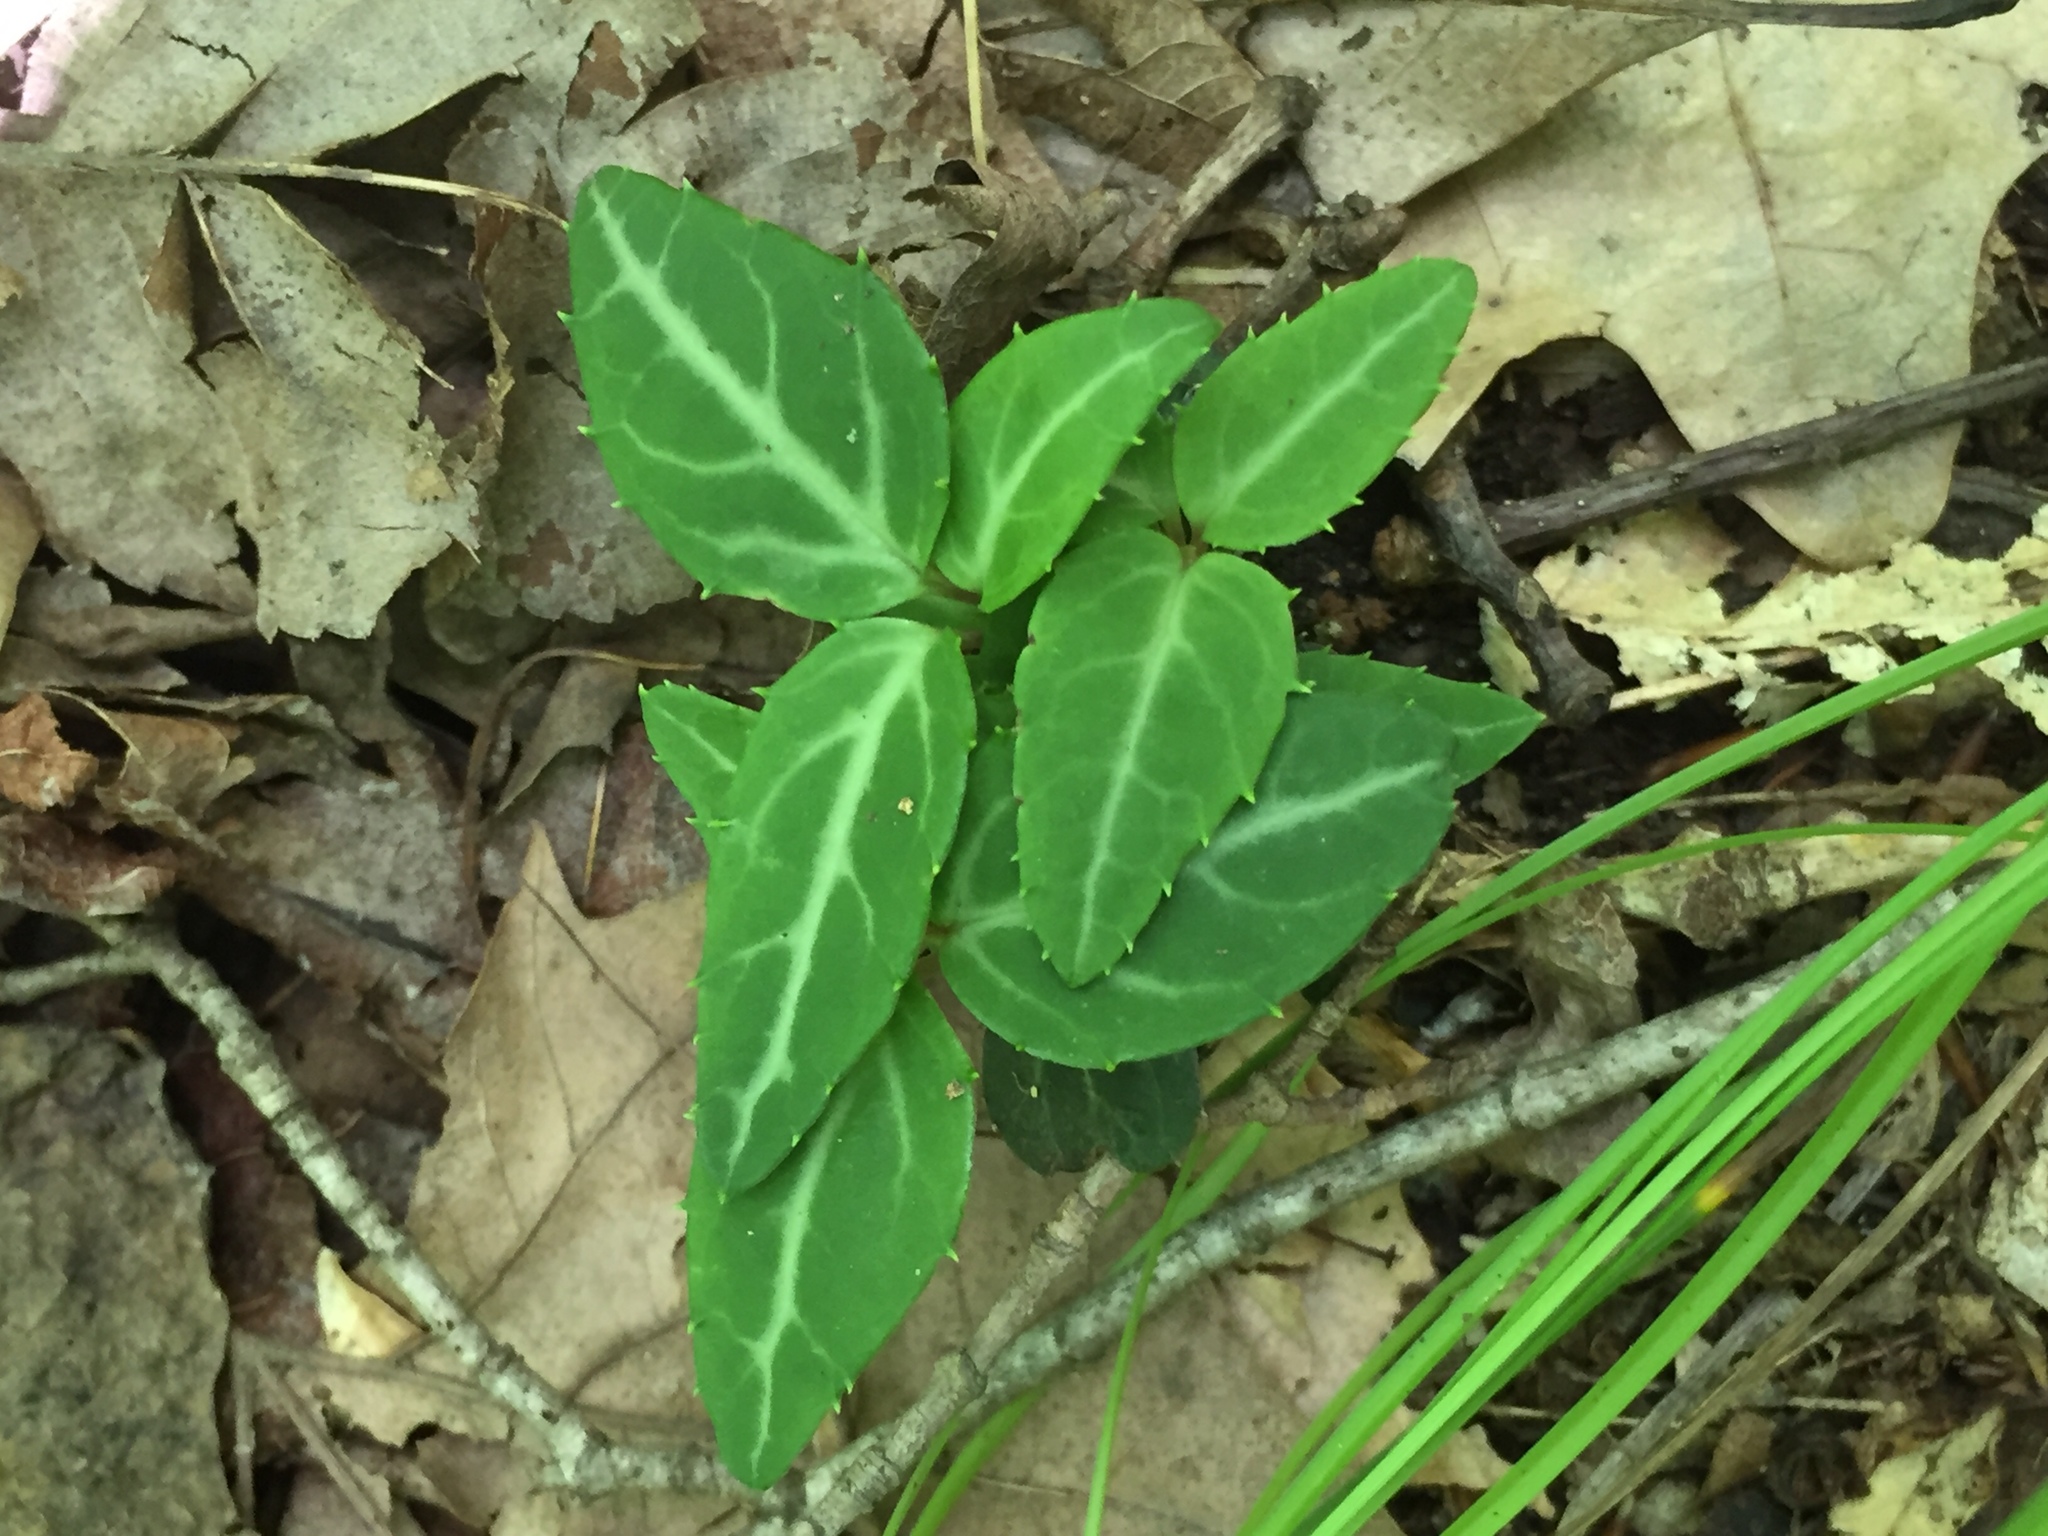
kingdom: Plantae
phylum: Tracheophyta
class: Magnoliopsida
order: Ericales
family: Ericaceae
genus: Chimaphila
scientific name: Chimaphila maculata
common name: Spotted pipsissewa
